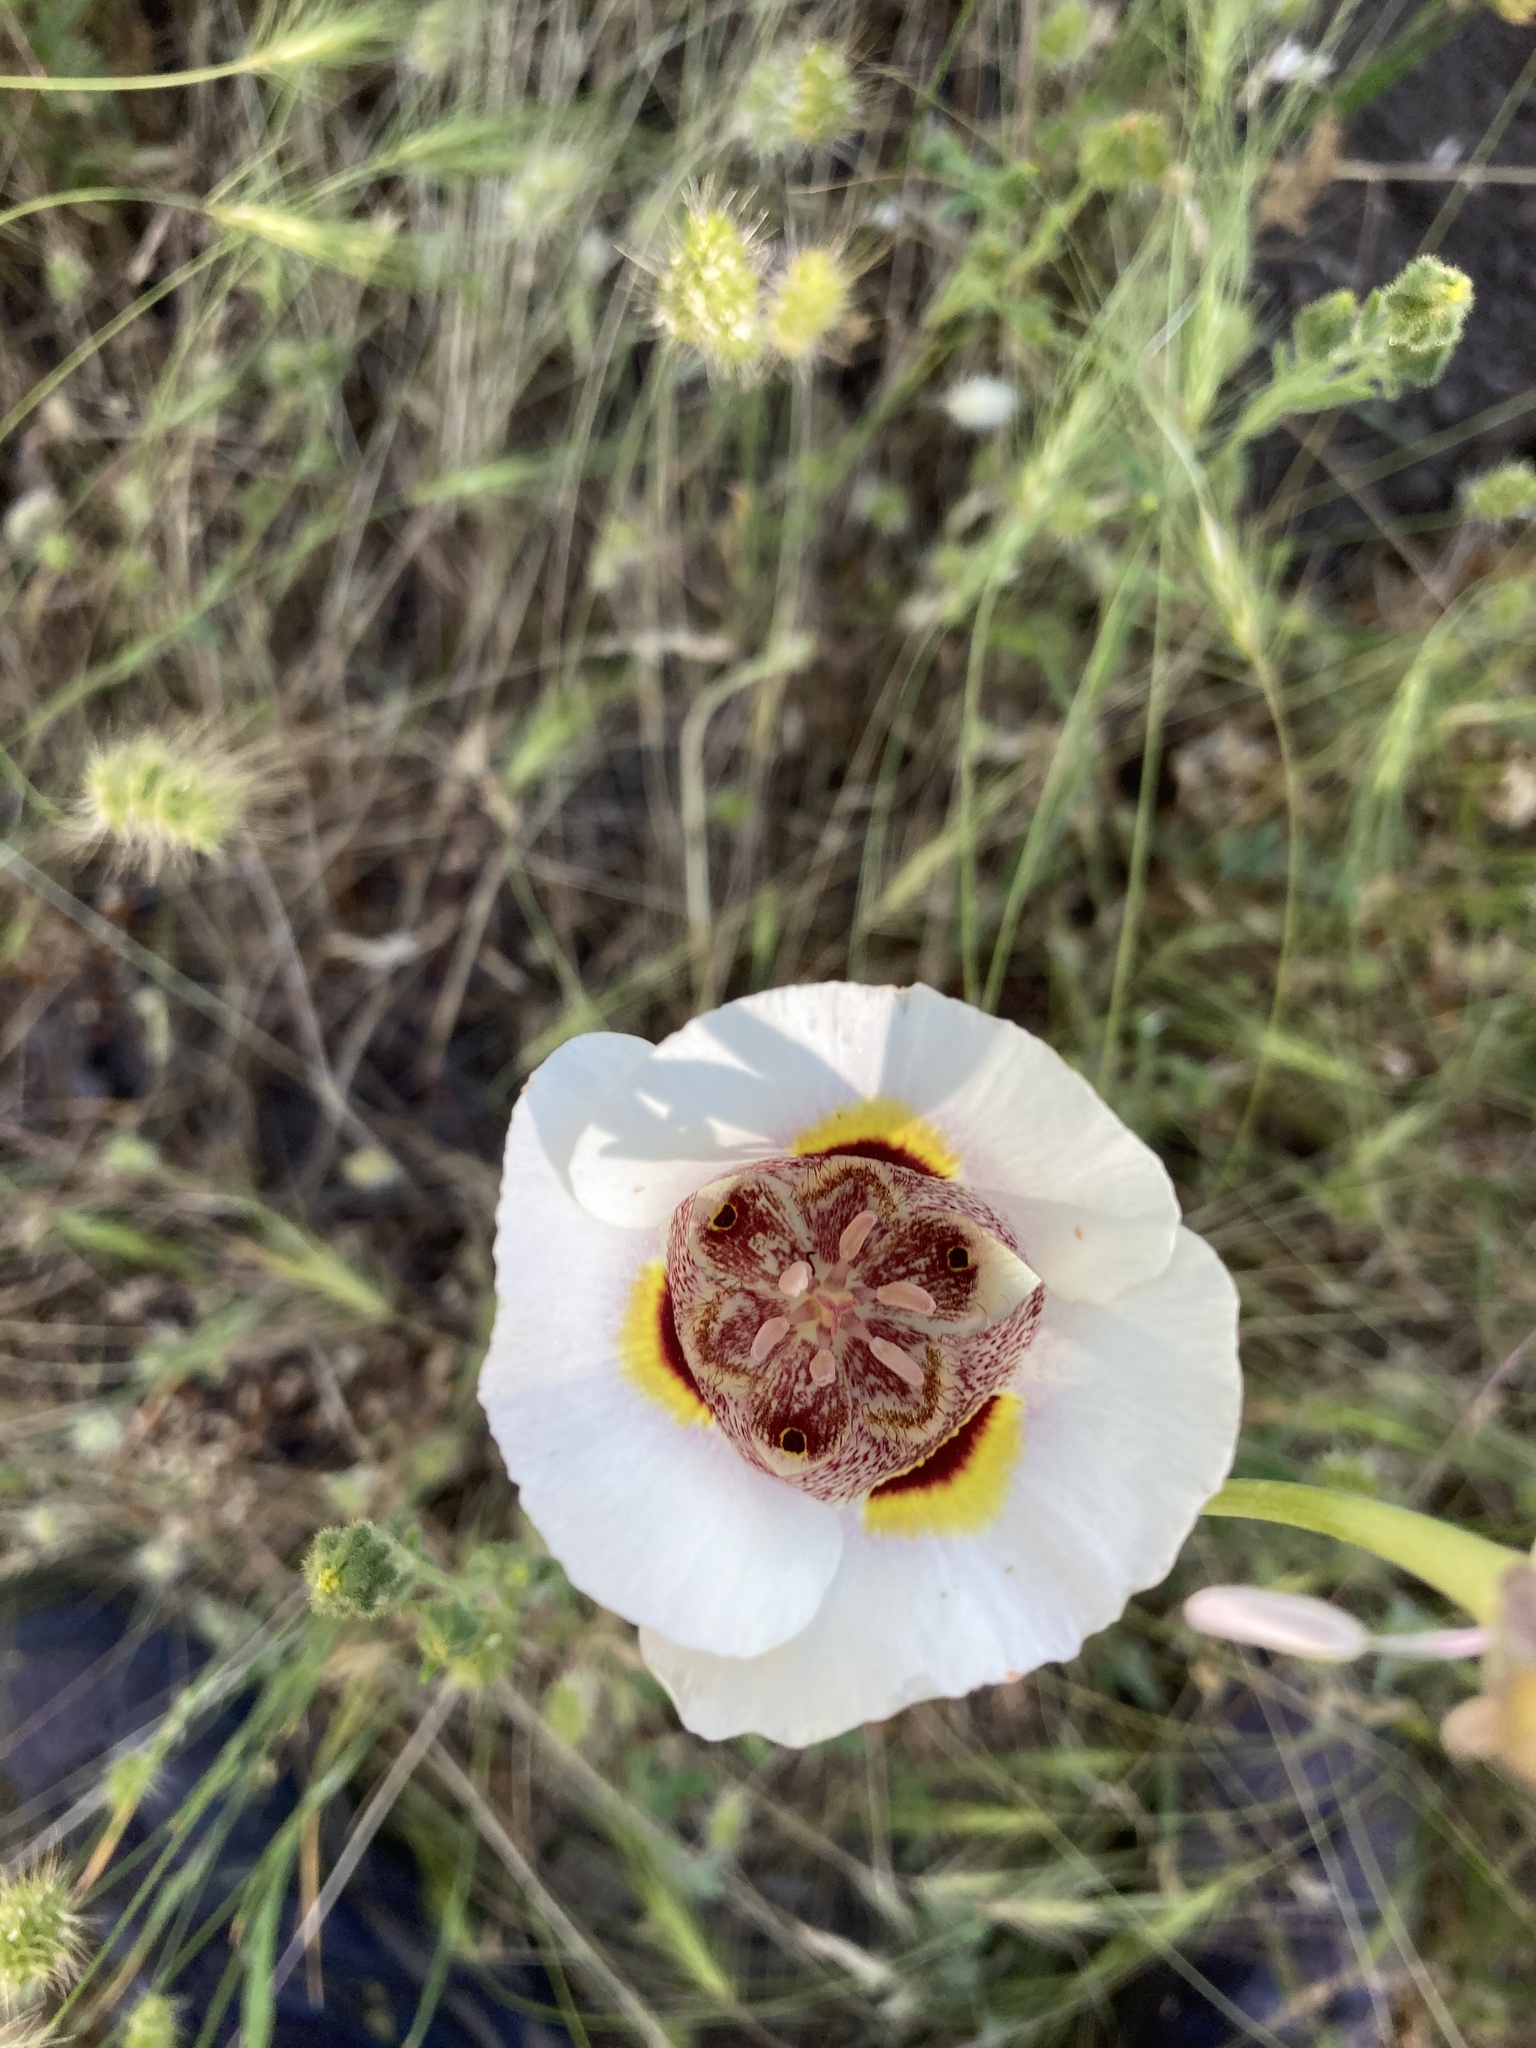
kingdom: Plantae
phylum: Tracheophyta
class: Liliopsida
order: Liliales
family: Liliaceae
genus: Calochortus
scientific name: Calochortus superbus
